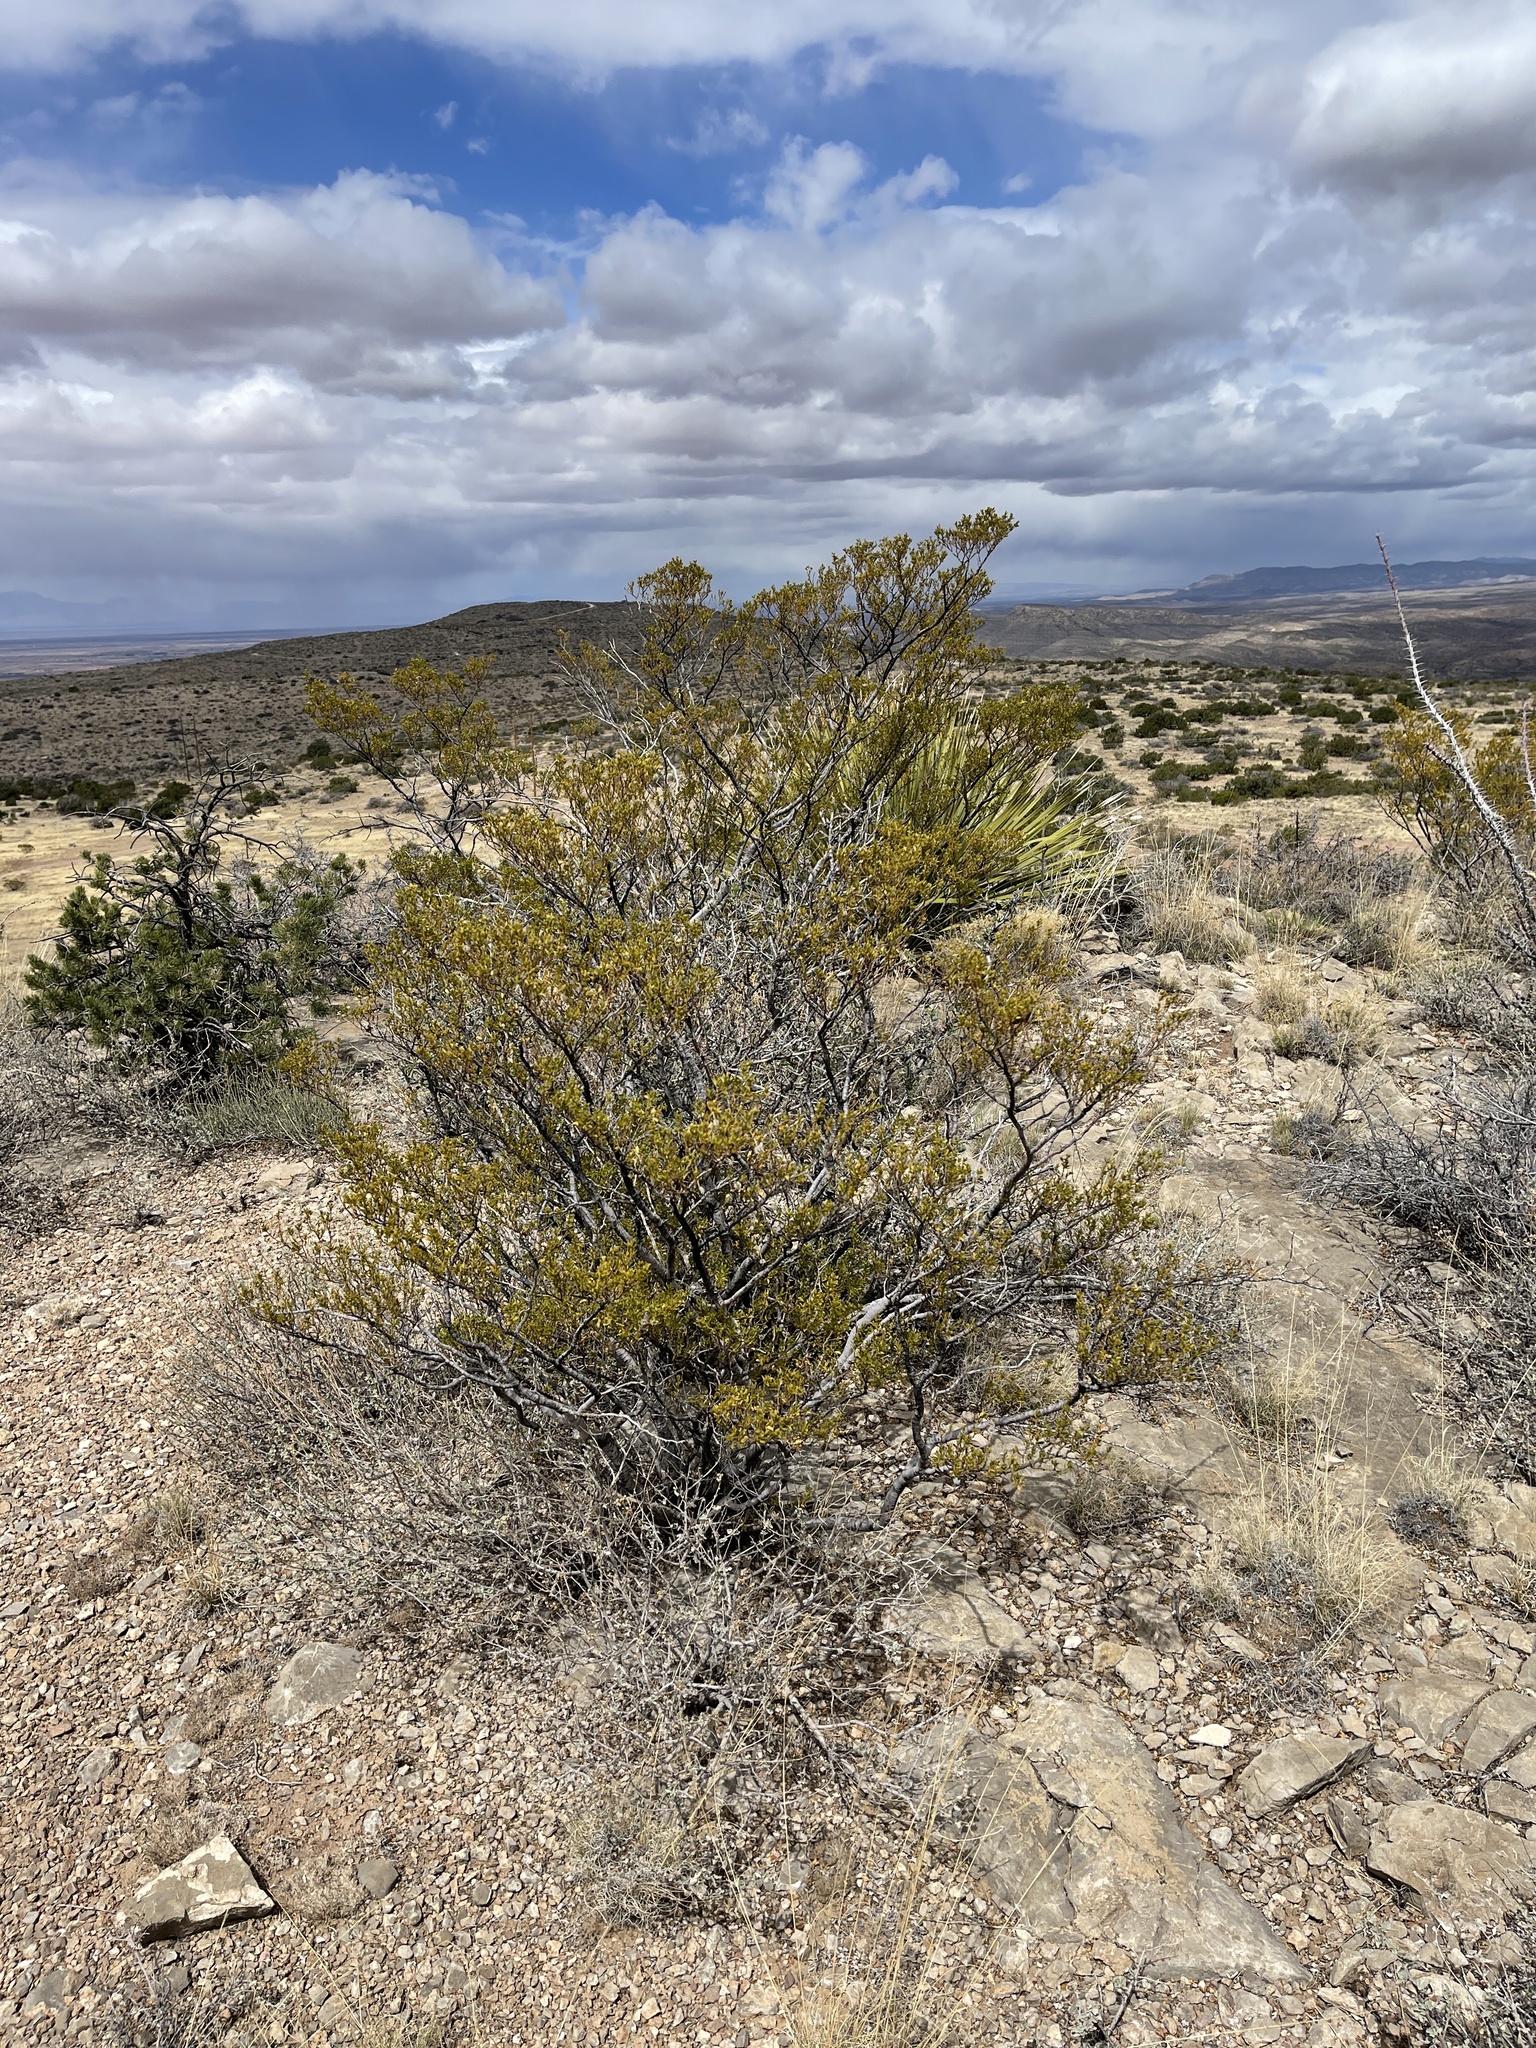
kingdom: Plantae
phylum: Tracheophyta
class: Magnoliopsida
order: Zygophyllales
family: Zygophyllaceae
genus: Larrea
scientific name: Larrea tridentata
